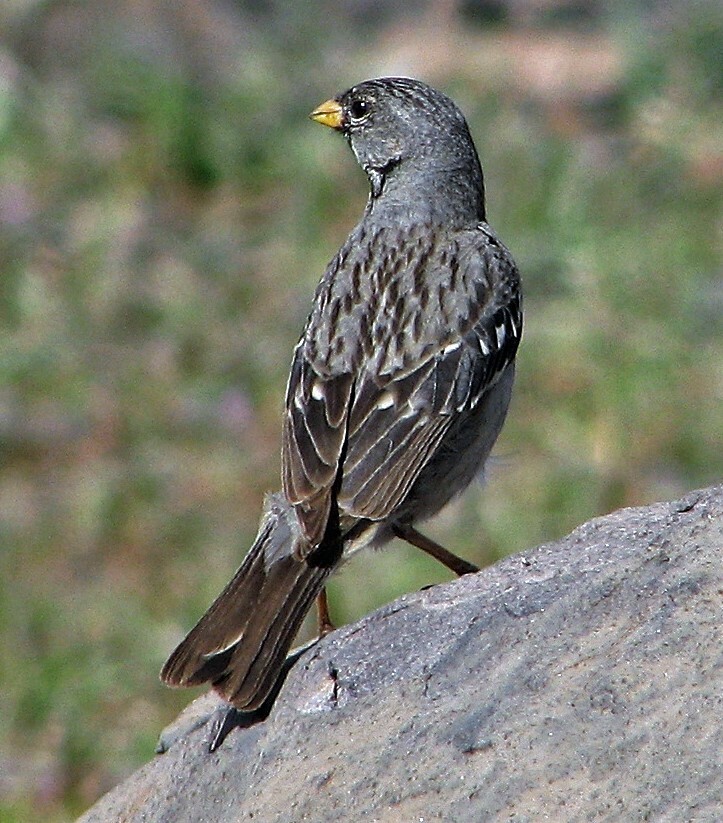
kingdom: Animalia
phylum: Chordata
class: Aves
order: Passeriformes
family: Thraupidae
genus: Rhopospina
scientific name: Rhopospina fruticeti
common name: Mourning sierra finch
